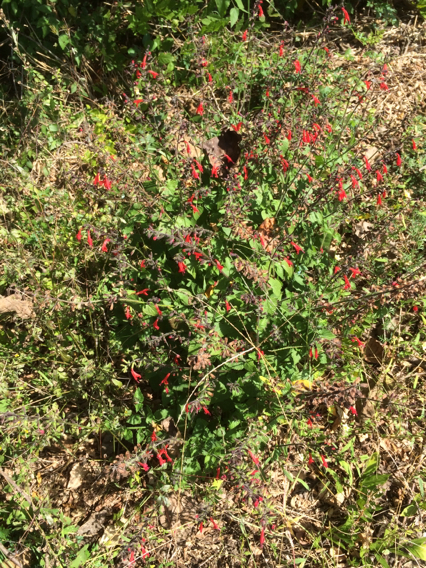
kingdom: Plantae
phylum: Tracheophyta
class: Magnoliopsida
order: Lamiales
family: Lamiaceae
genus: Salvia
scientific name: Salvia coccinea
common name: Blood sage
